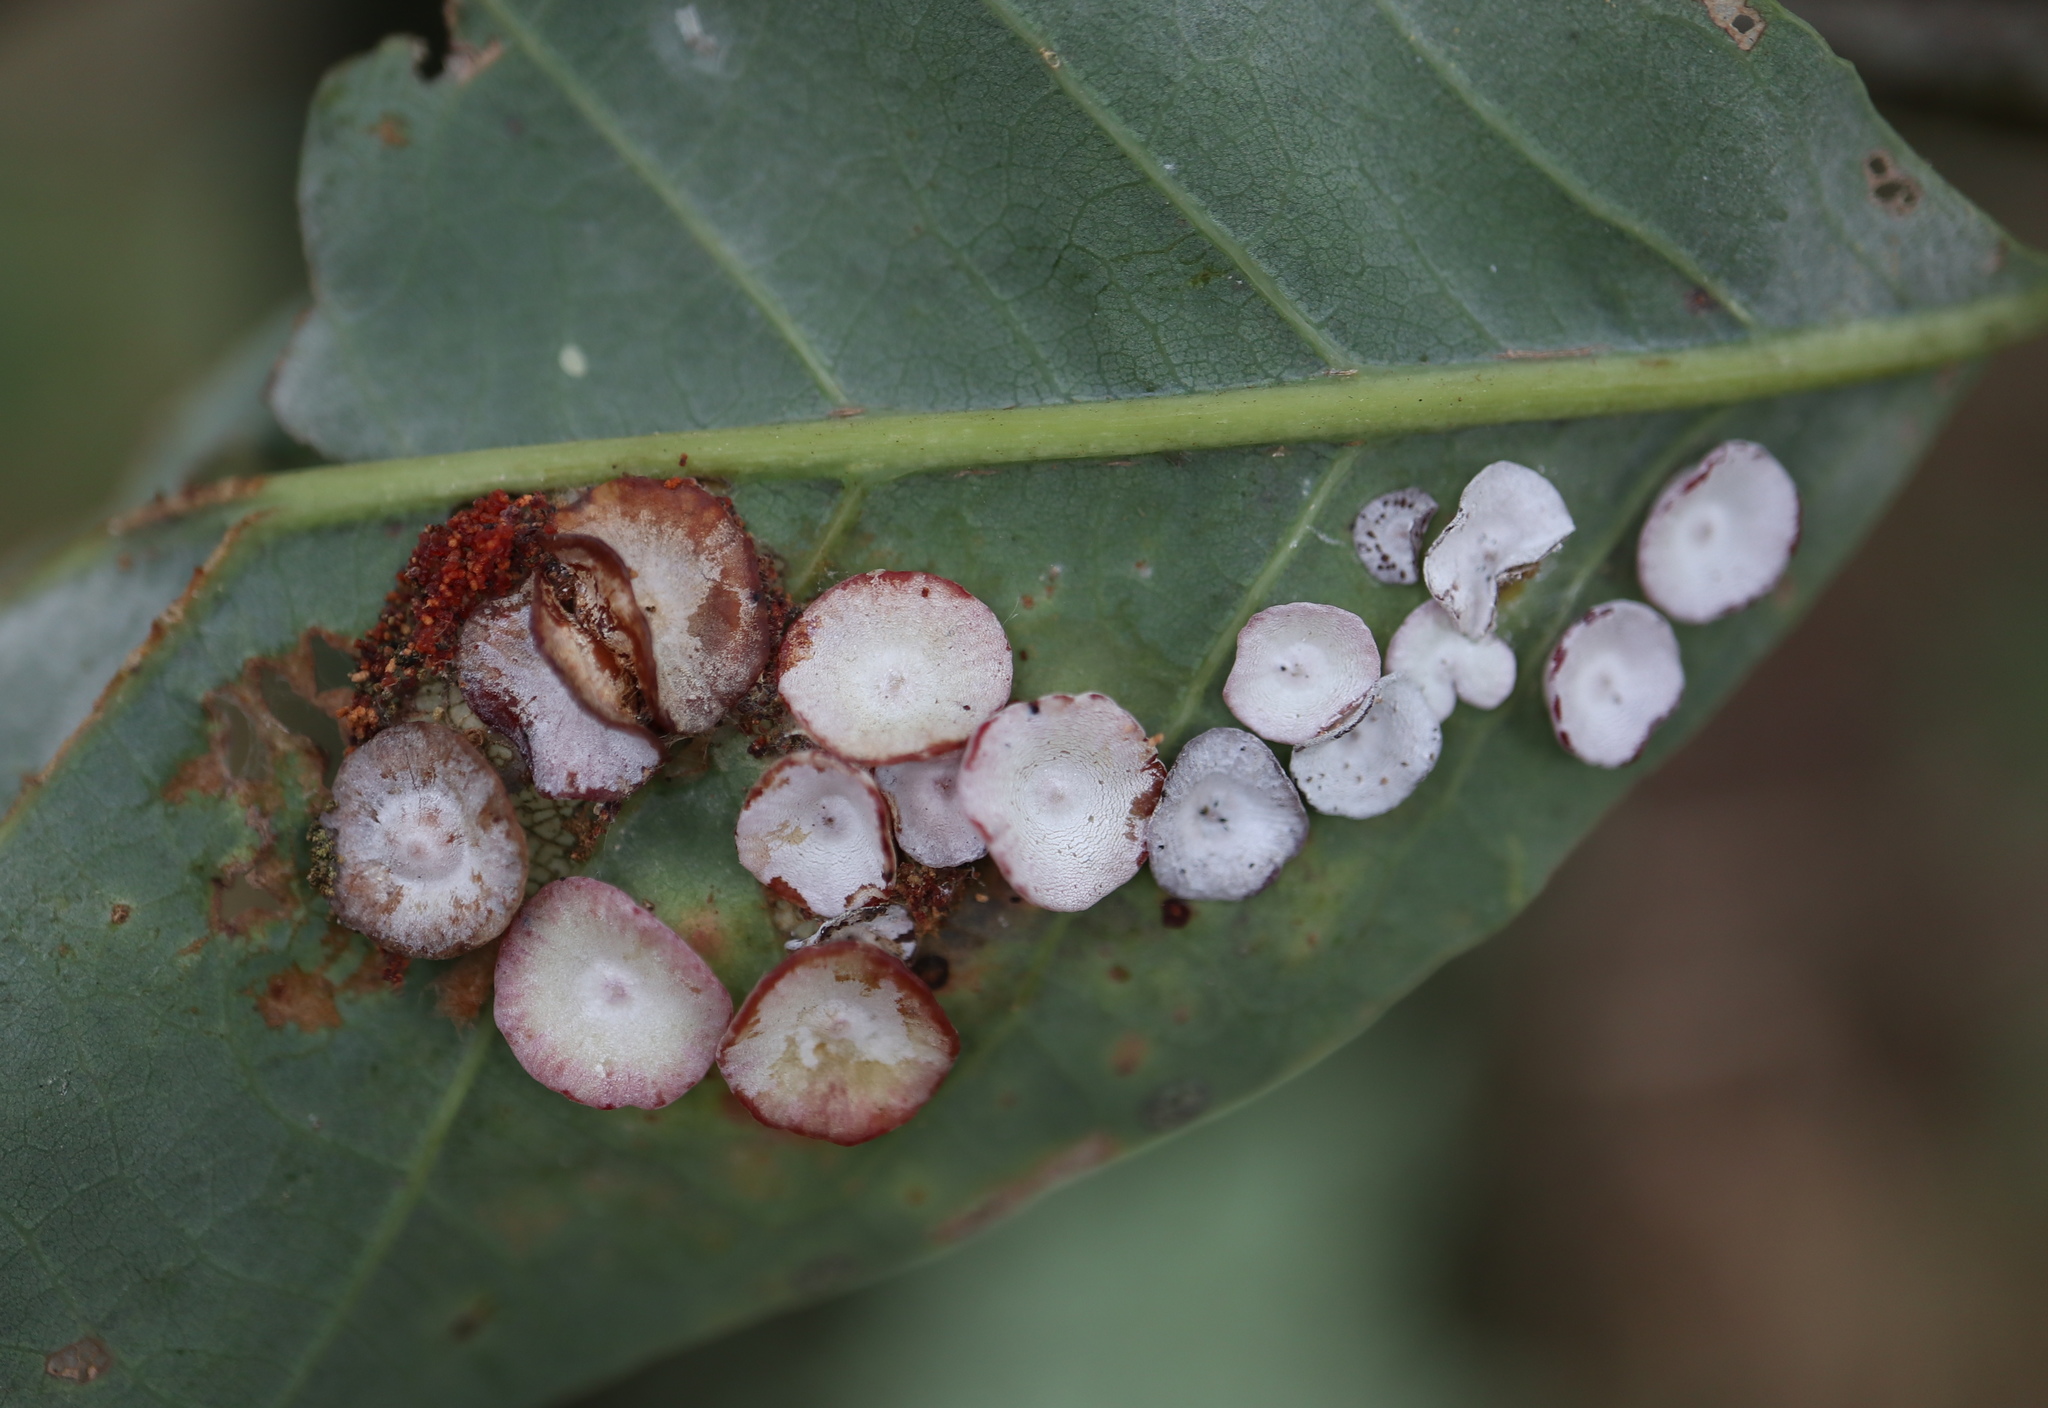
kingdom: Animalia
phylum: Arthropoda
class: Insecta
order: Hymenoptera
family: Cynipidae
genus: Phylloteras
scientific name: Phylloteras poculum
